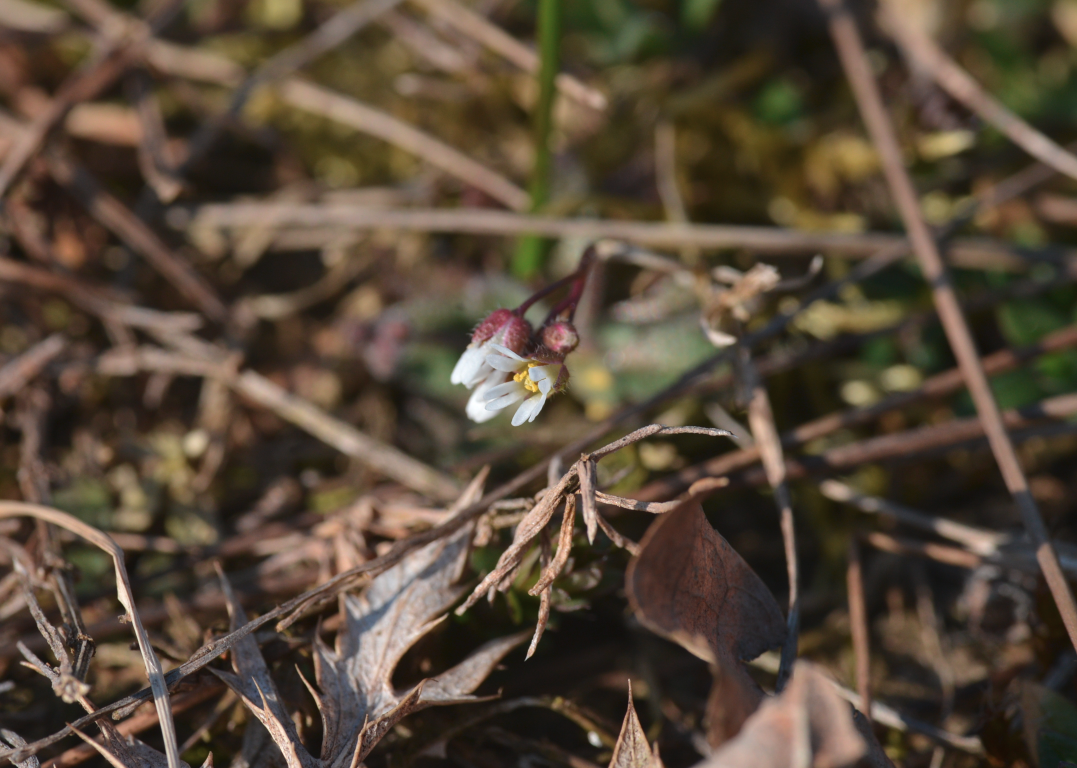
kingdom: Plantae
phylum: Tracheophyta
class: Magnoliopsida
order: Brassicales
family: Brassicaceae
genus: Draba
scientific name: Draba verna
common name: Spring draba
